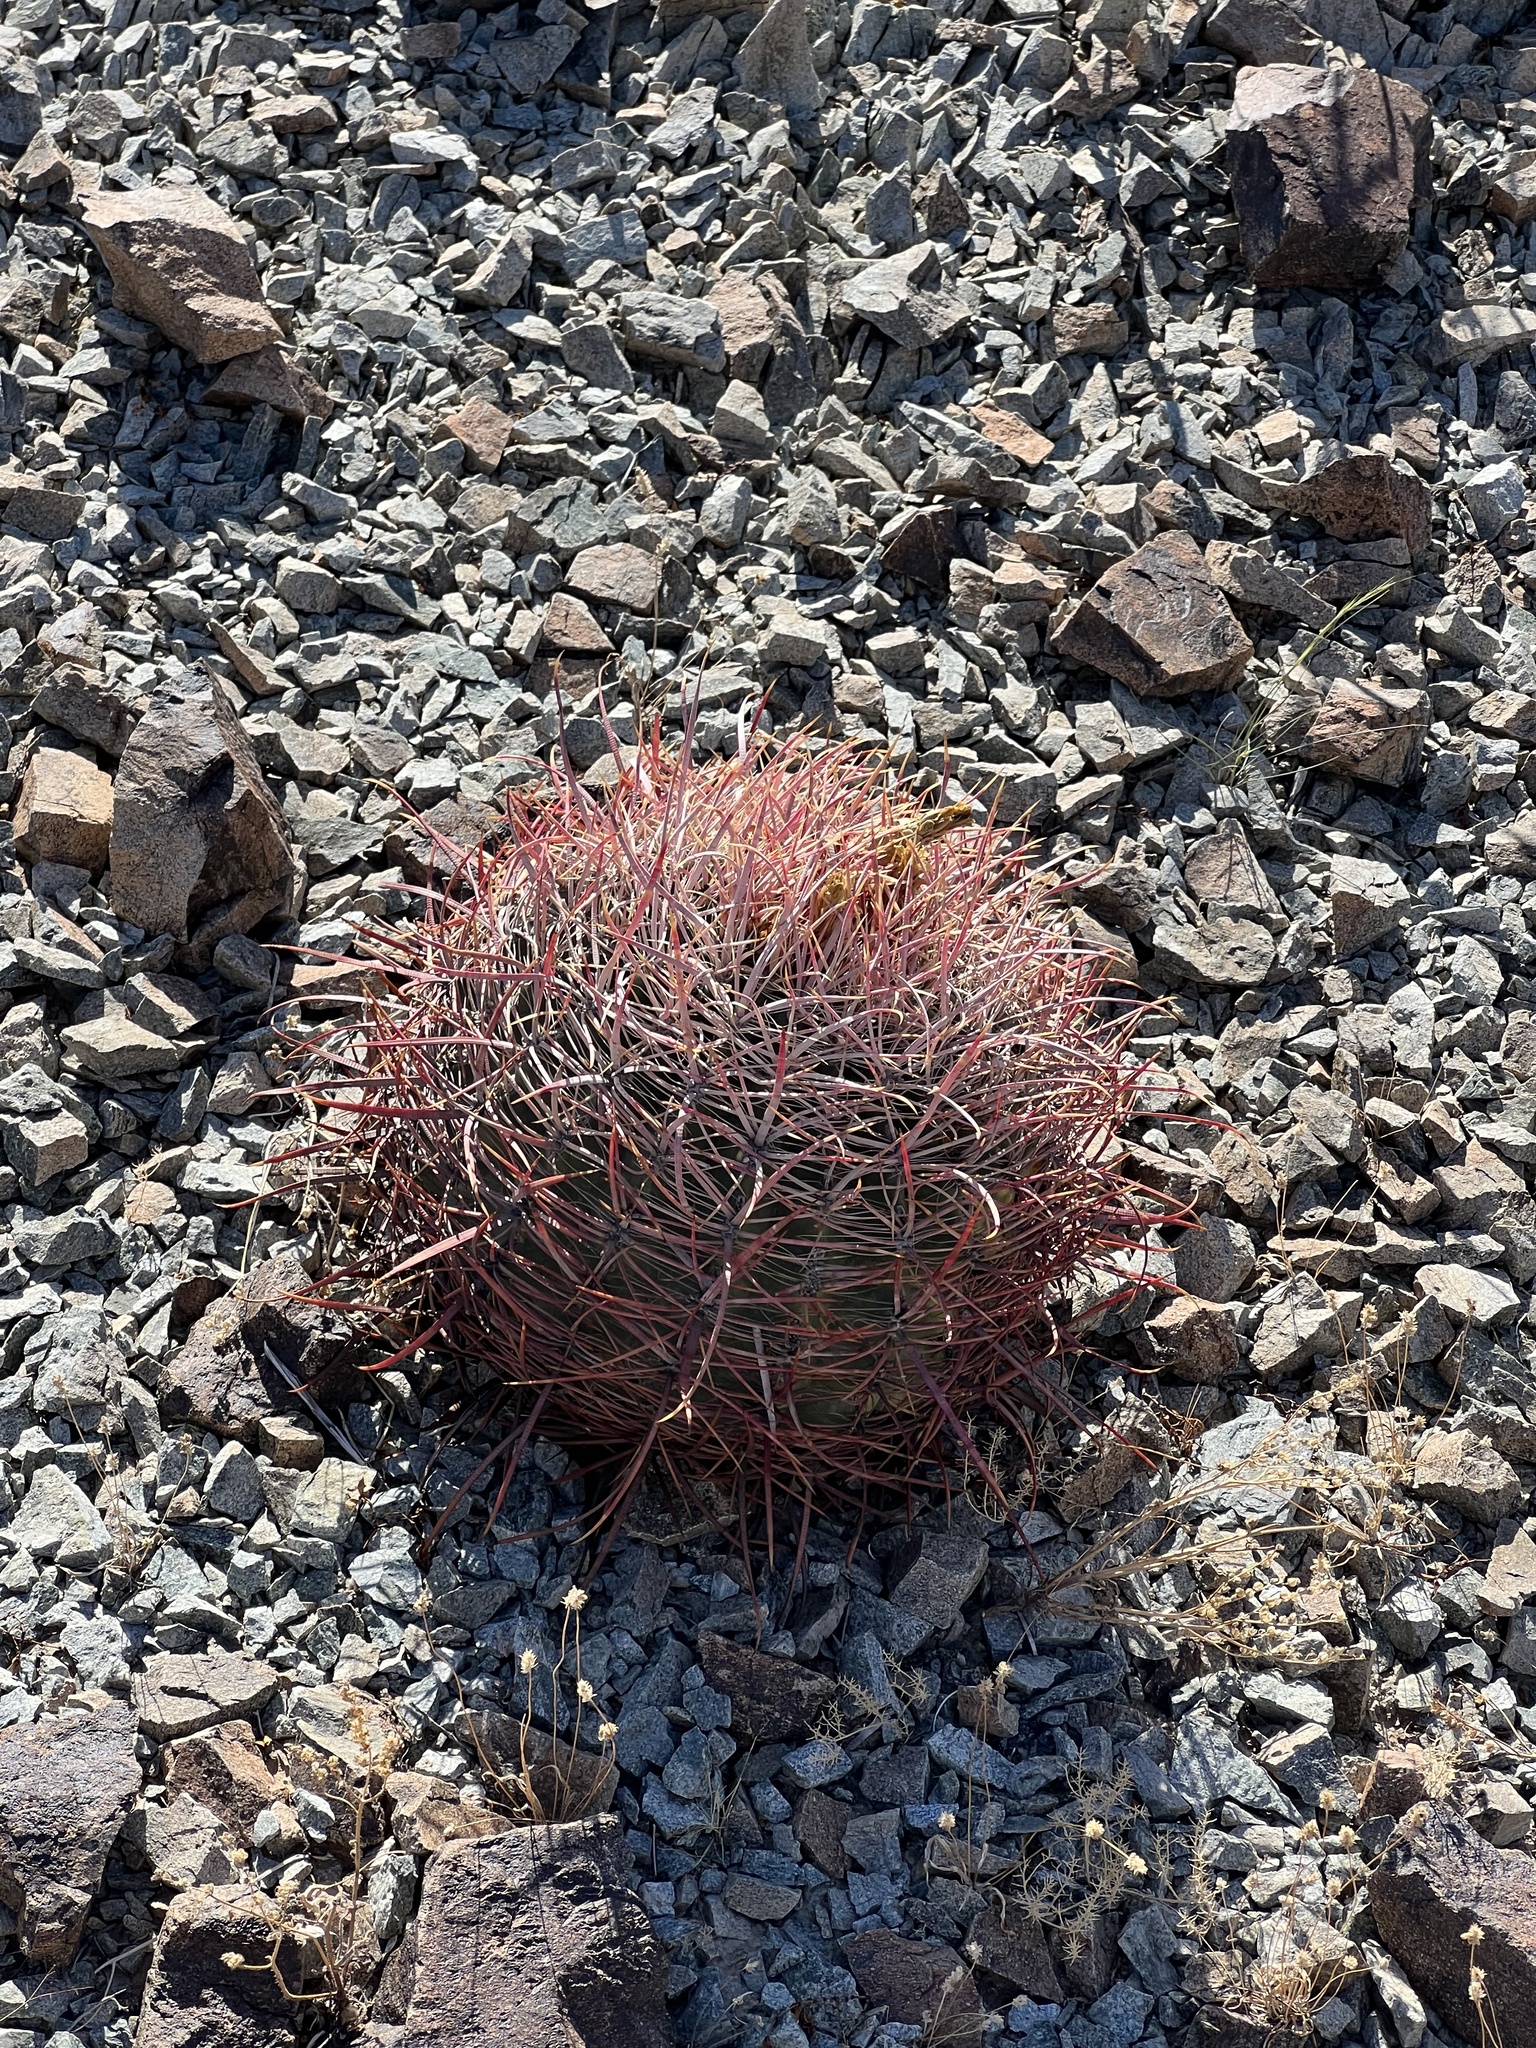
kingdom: Plantae
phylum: Tracheophyta
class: Magnoliopsida
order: Caryophyllales
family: Cactaceae
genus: Ferocactus
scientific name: Ferocactus cylindraceus
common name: California barrel cactus
